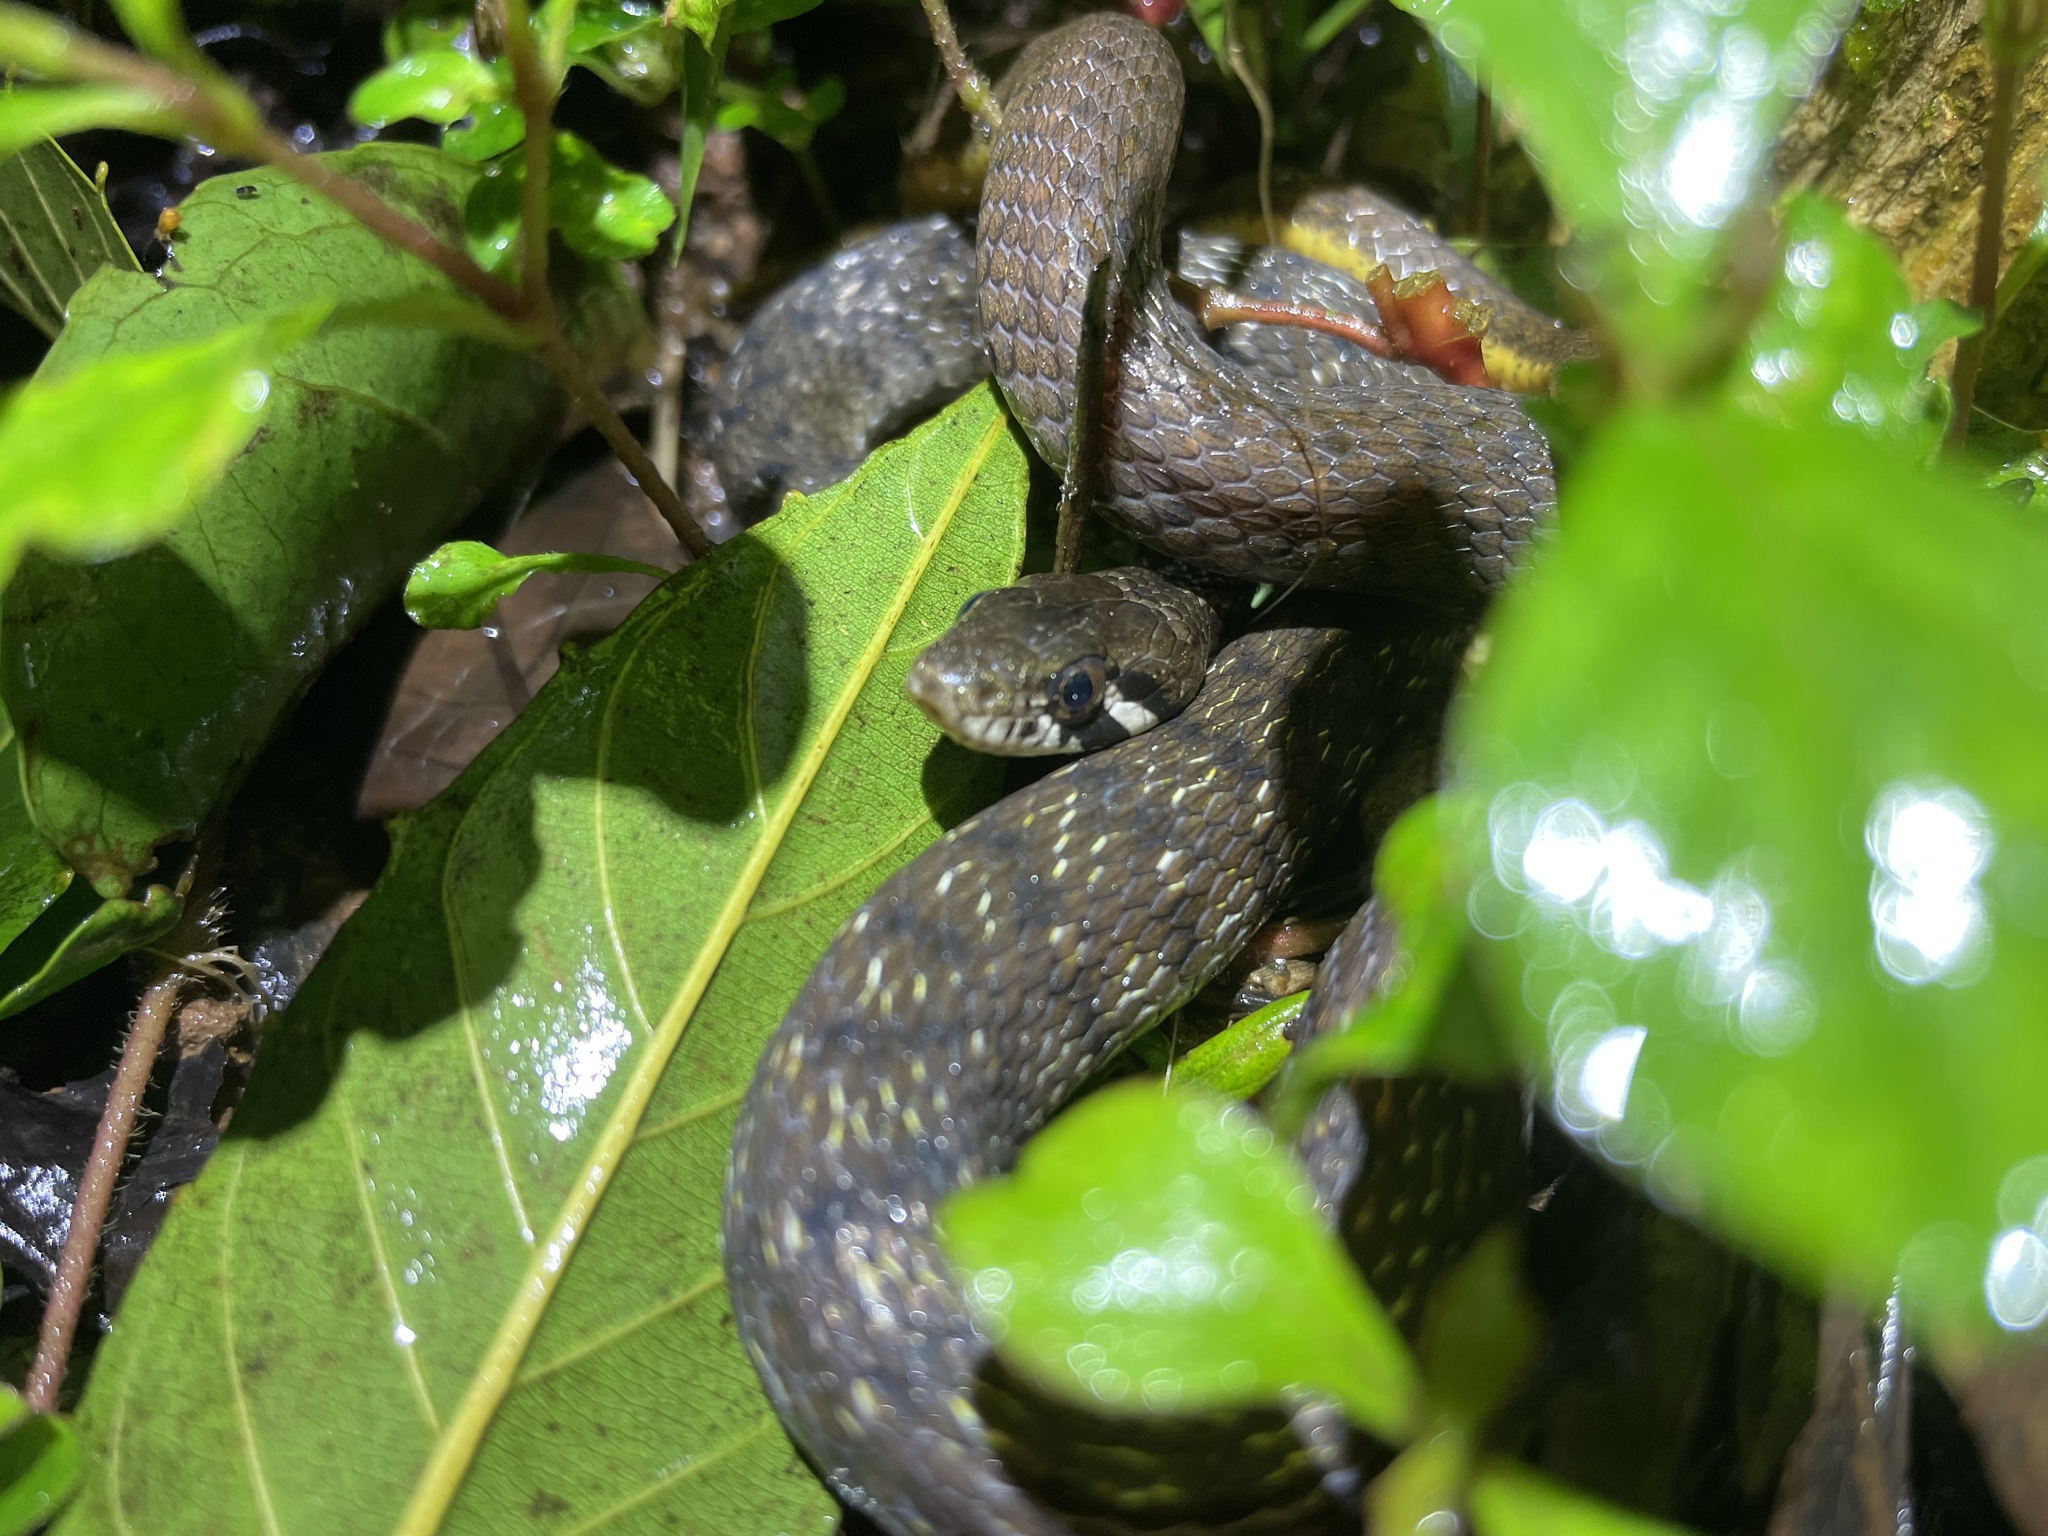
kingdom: Animalia
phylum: Chordata
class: Squamata
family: Colubridae
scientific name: Colubridae
